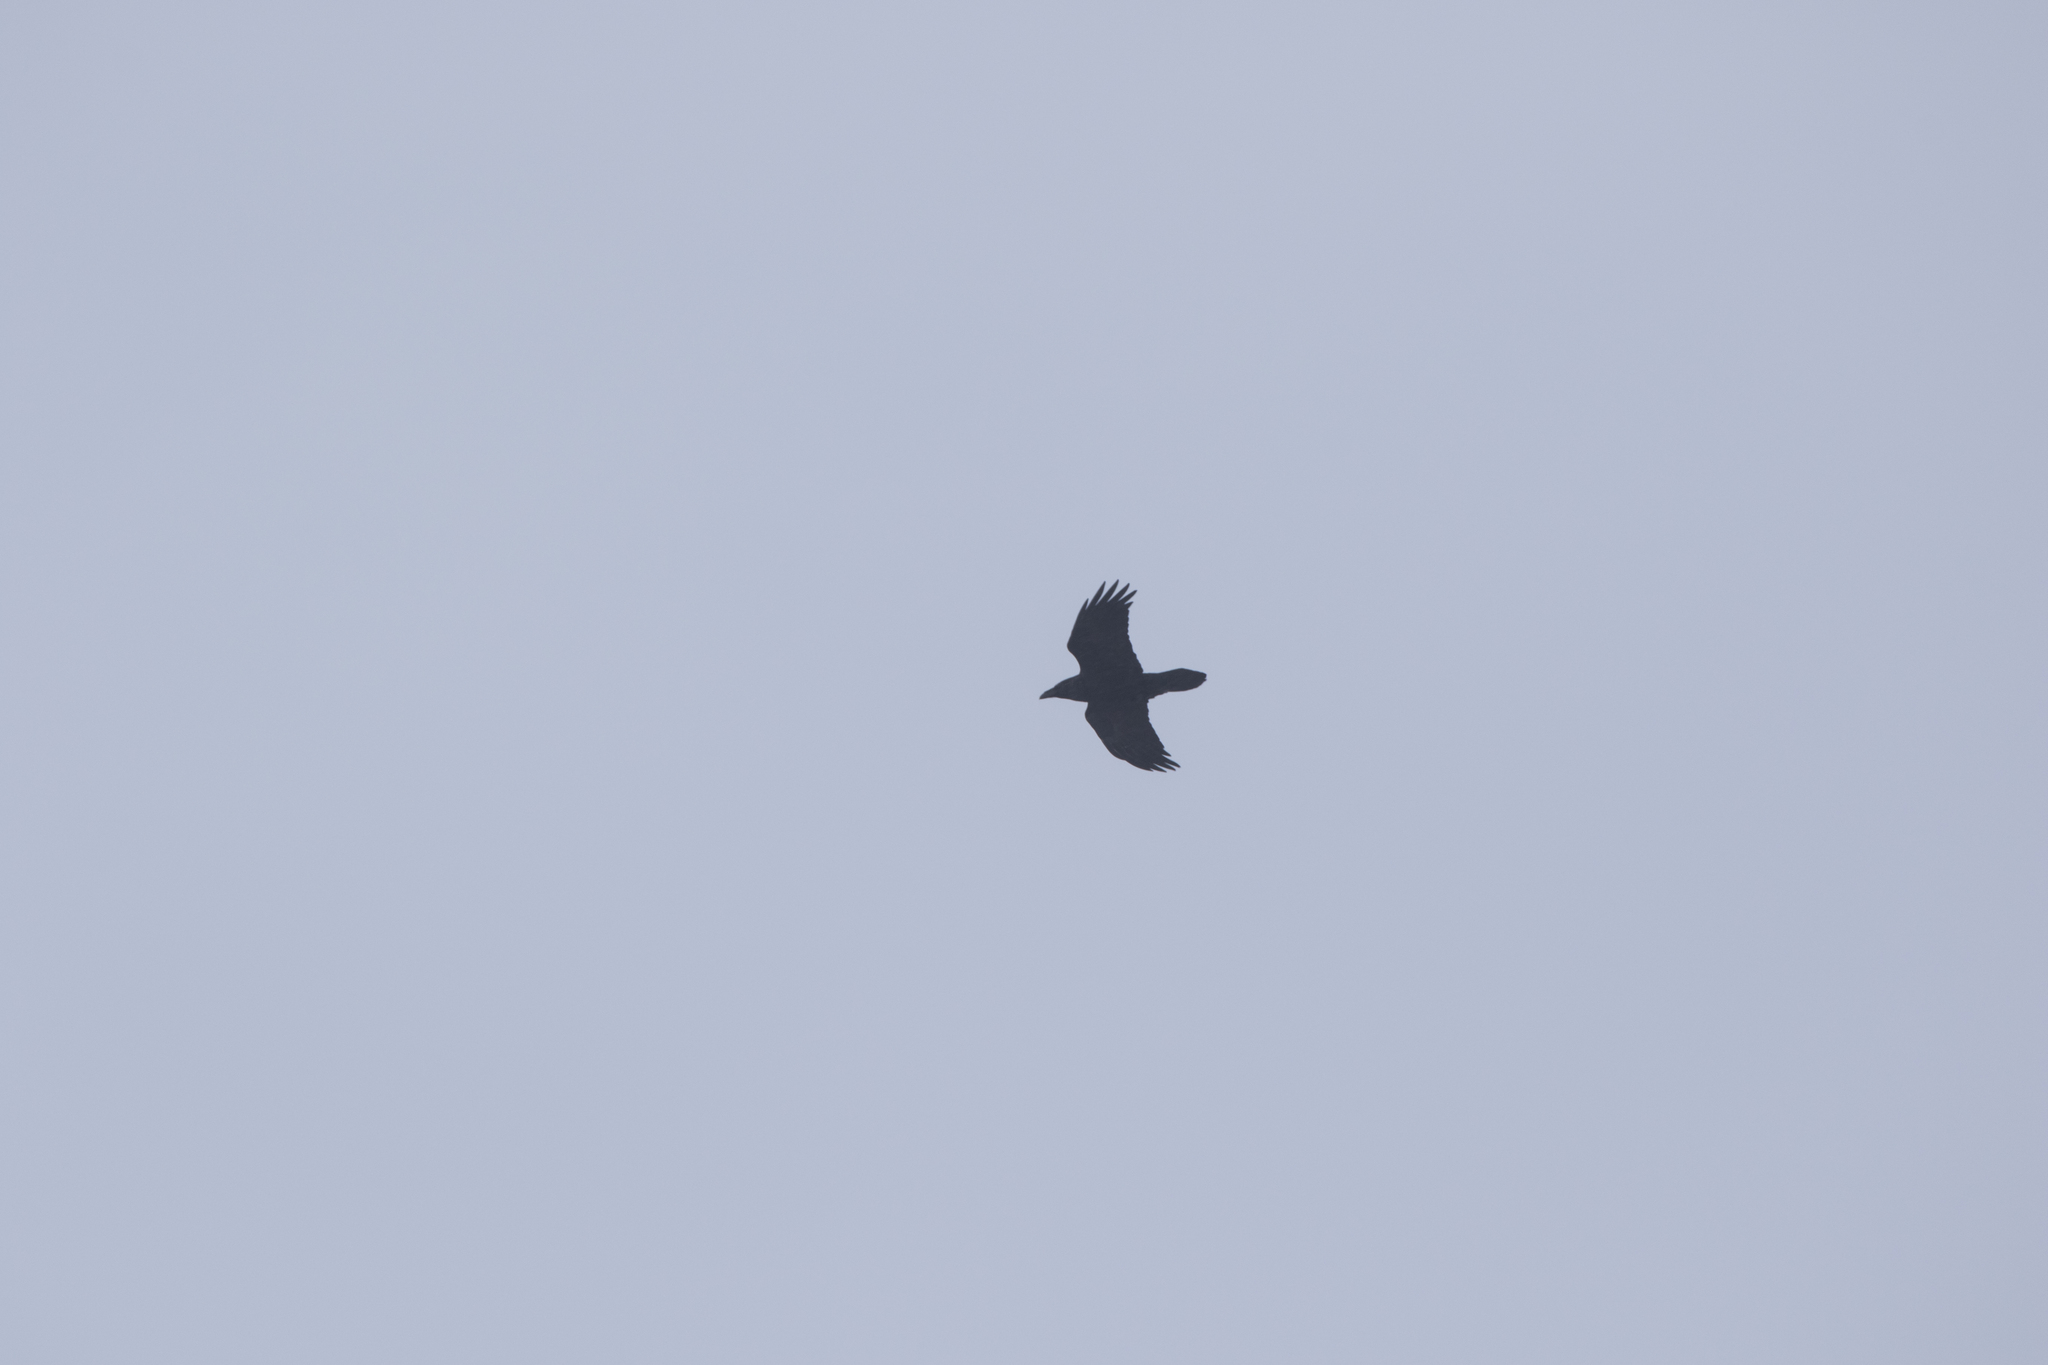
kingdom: Animalia
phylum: Chordata
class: Aves
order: Passeriformes
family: Corvidae
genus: Corvus
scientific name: Corvus corax
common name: Common raven
